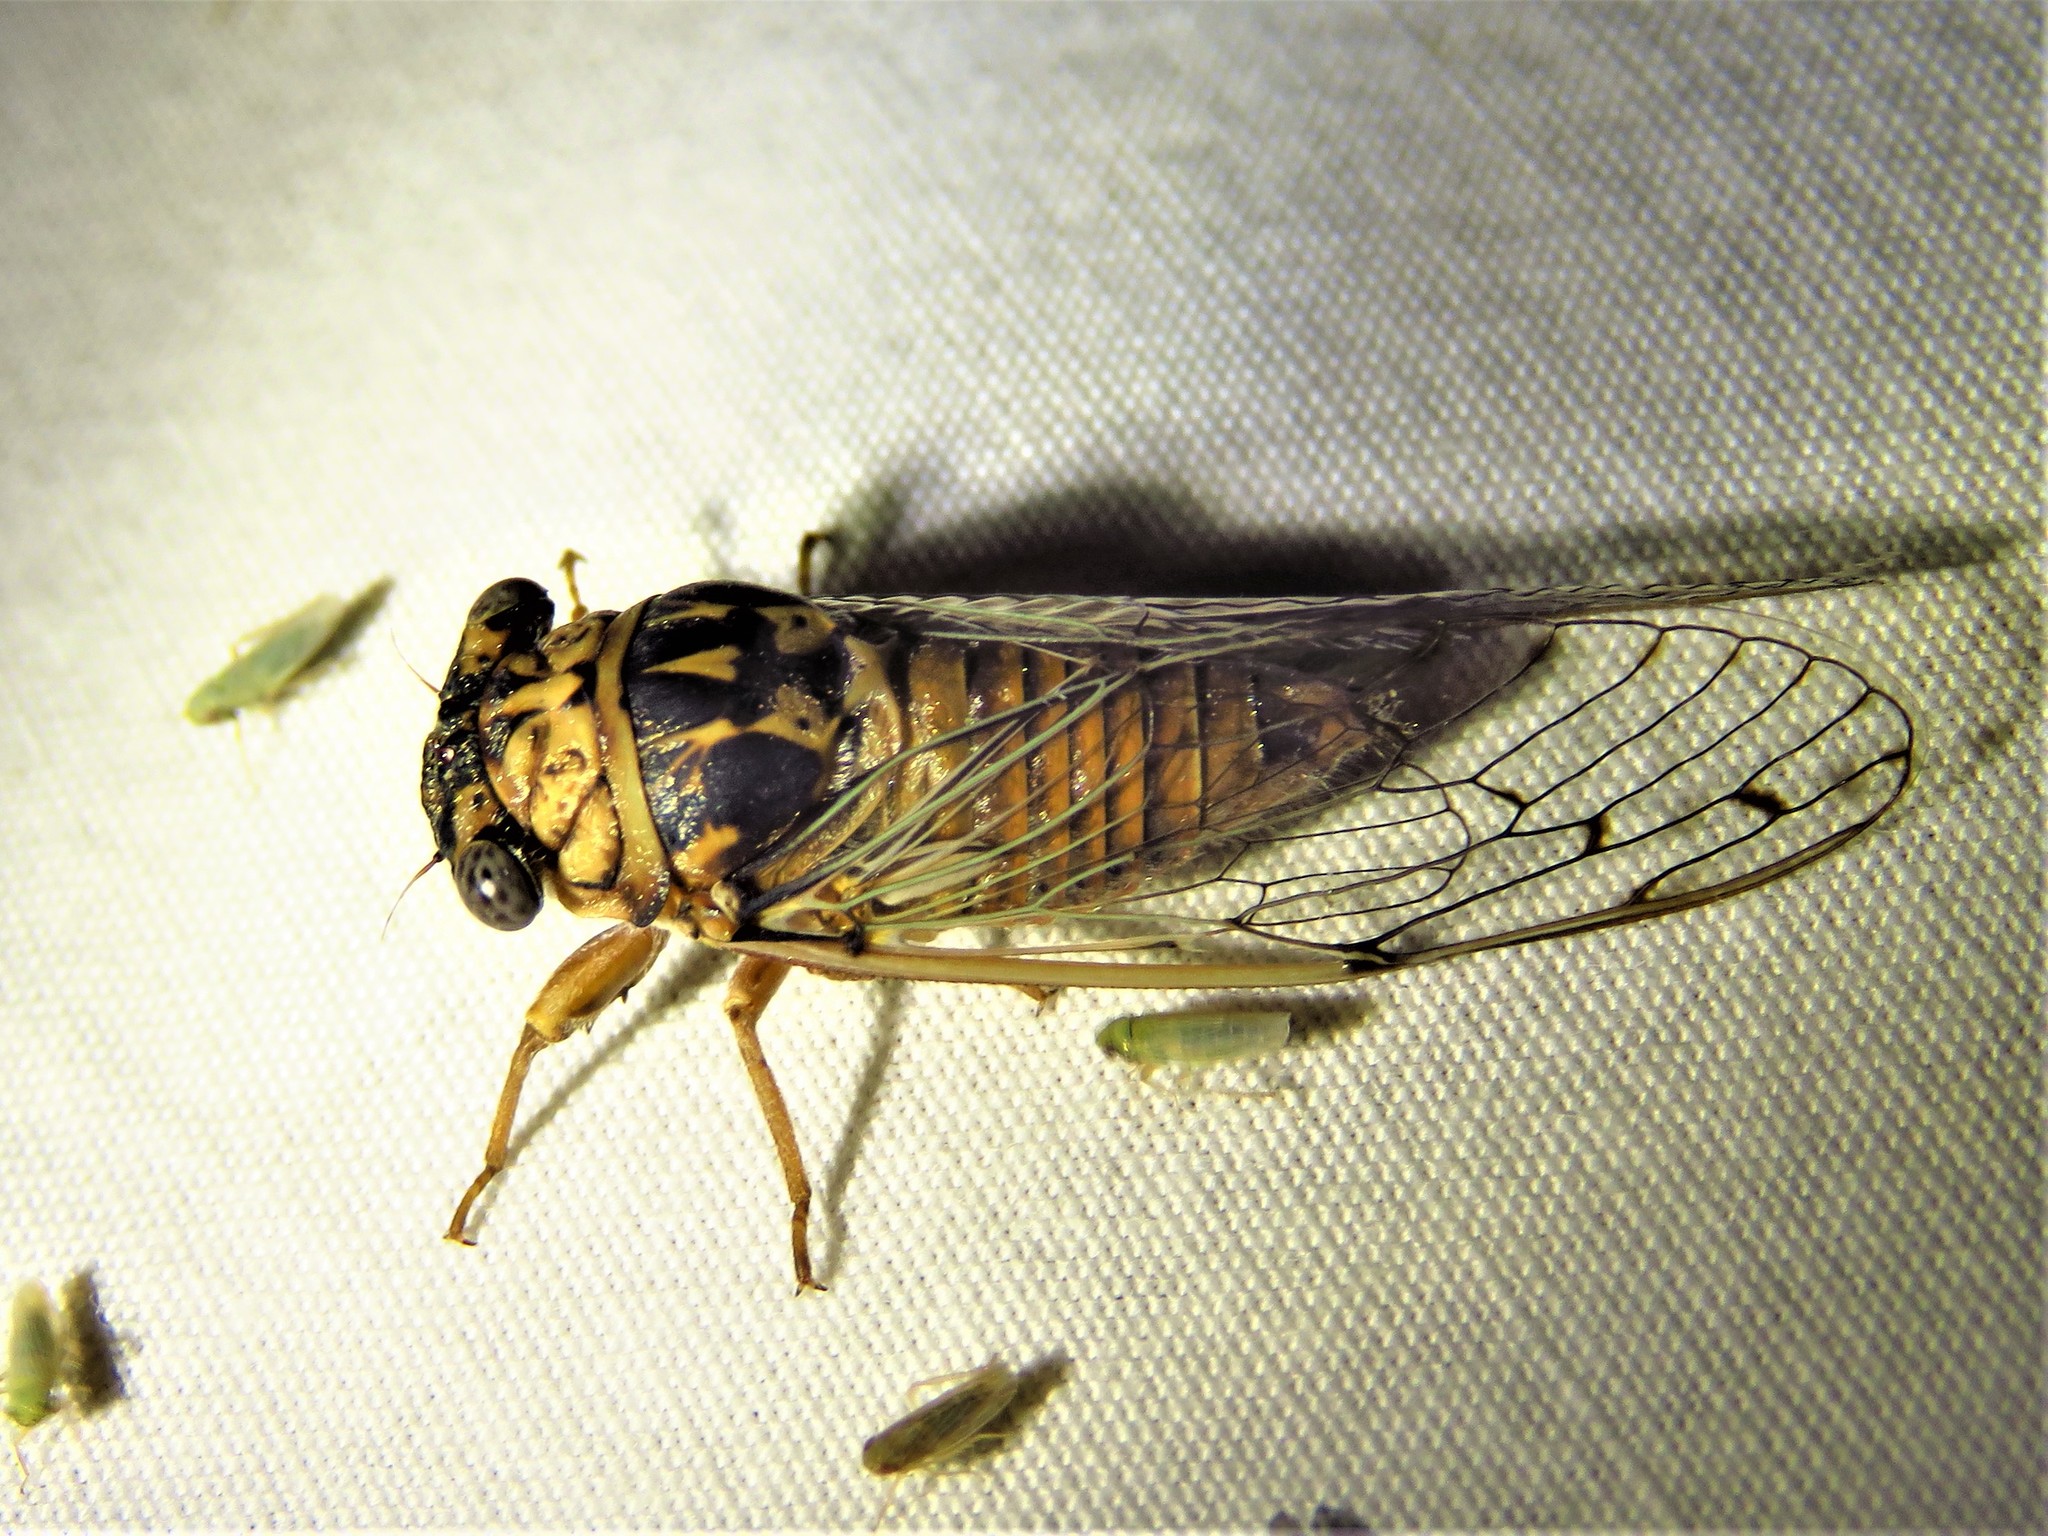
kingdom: Animalia
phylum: Arthropoda
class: Insecta
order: Hemiptera
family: Cicadidae
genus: Pacarina
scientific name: Pacarina puella
